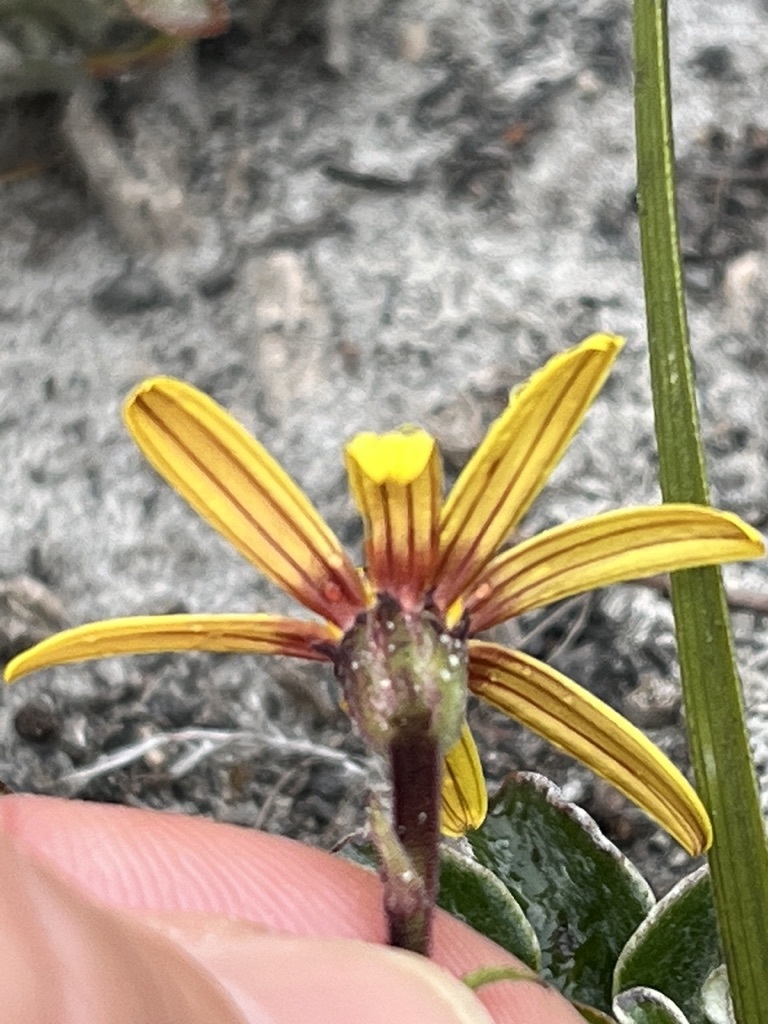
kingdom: Plantae
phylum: Tracheophyta
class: Magnoliopsida
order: Asterales
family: Asteraceae
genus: Osteospermum
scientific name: Osteospermum tomentosum
